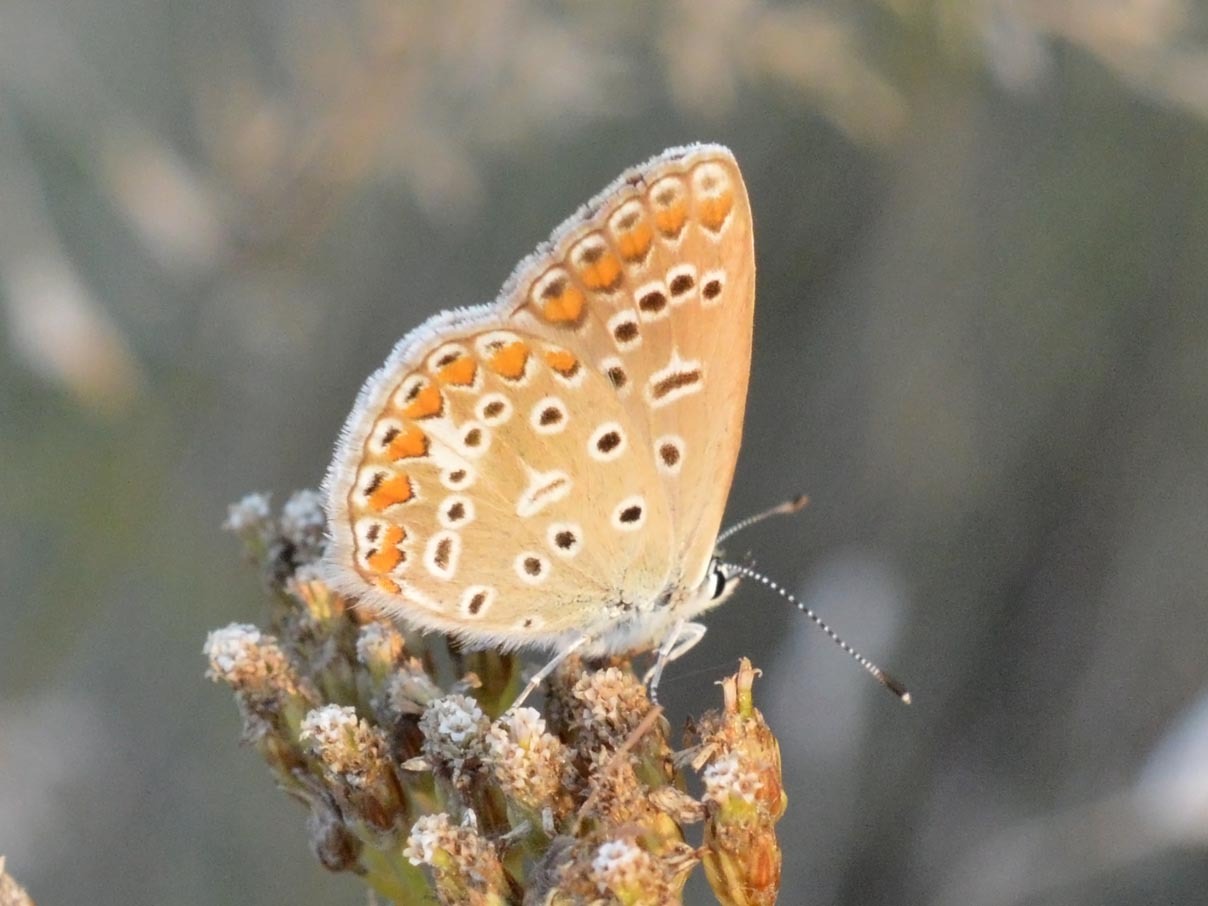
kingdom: Animalia
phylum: Arthropoda
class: Insecta
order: Lepidoptera
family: Lycaenidae
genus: Polyommatus
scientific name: Polyommatus icarus
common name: Common blue
